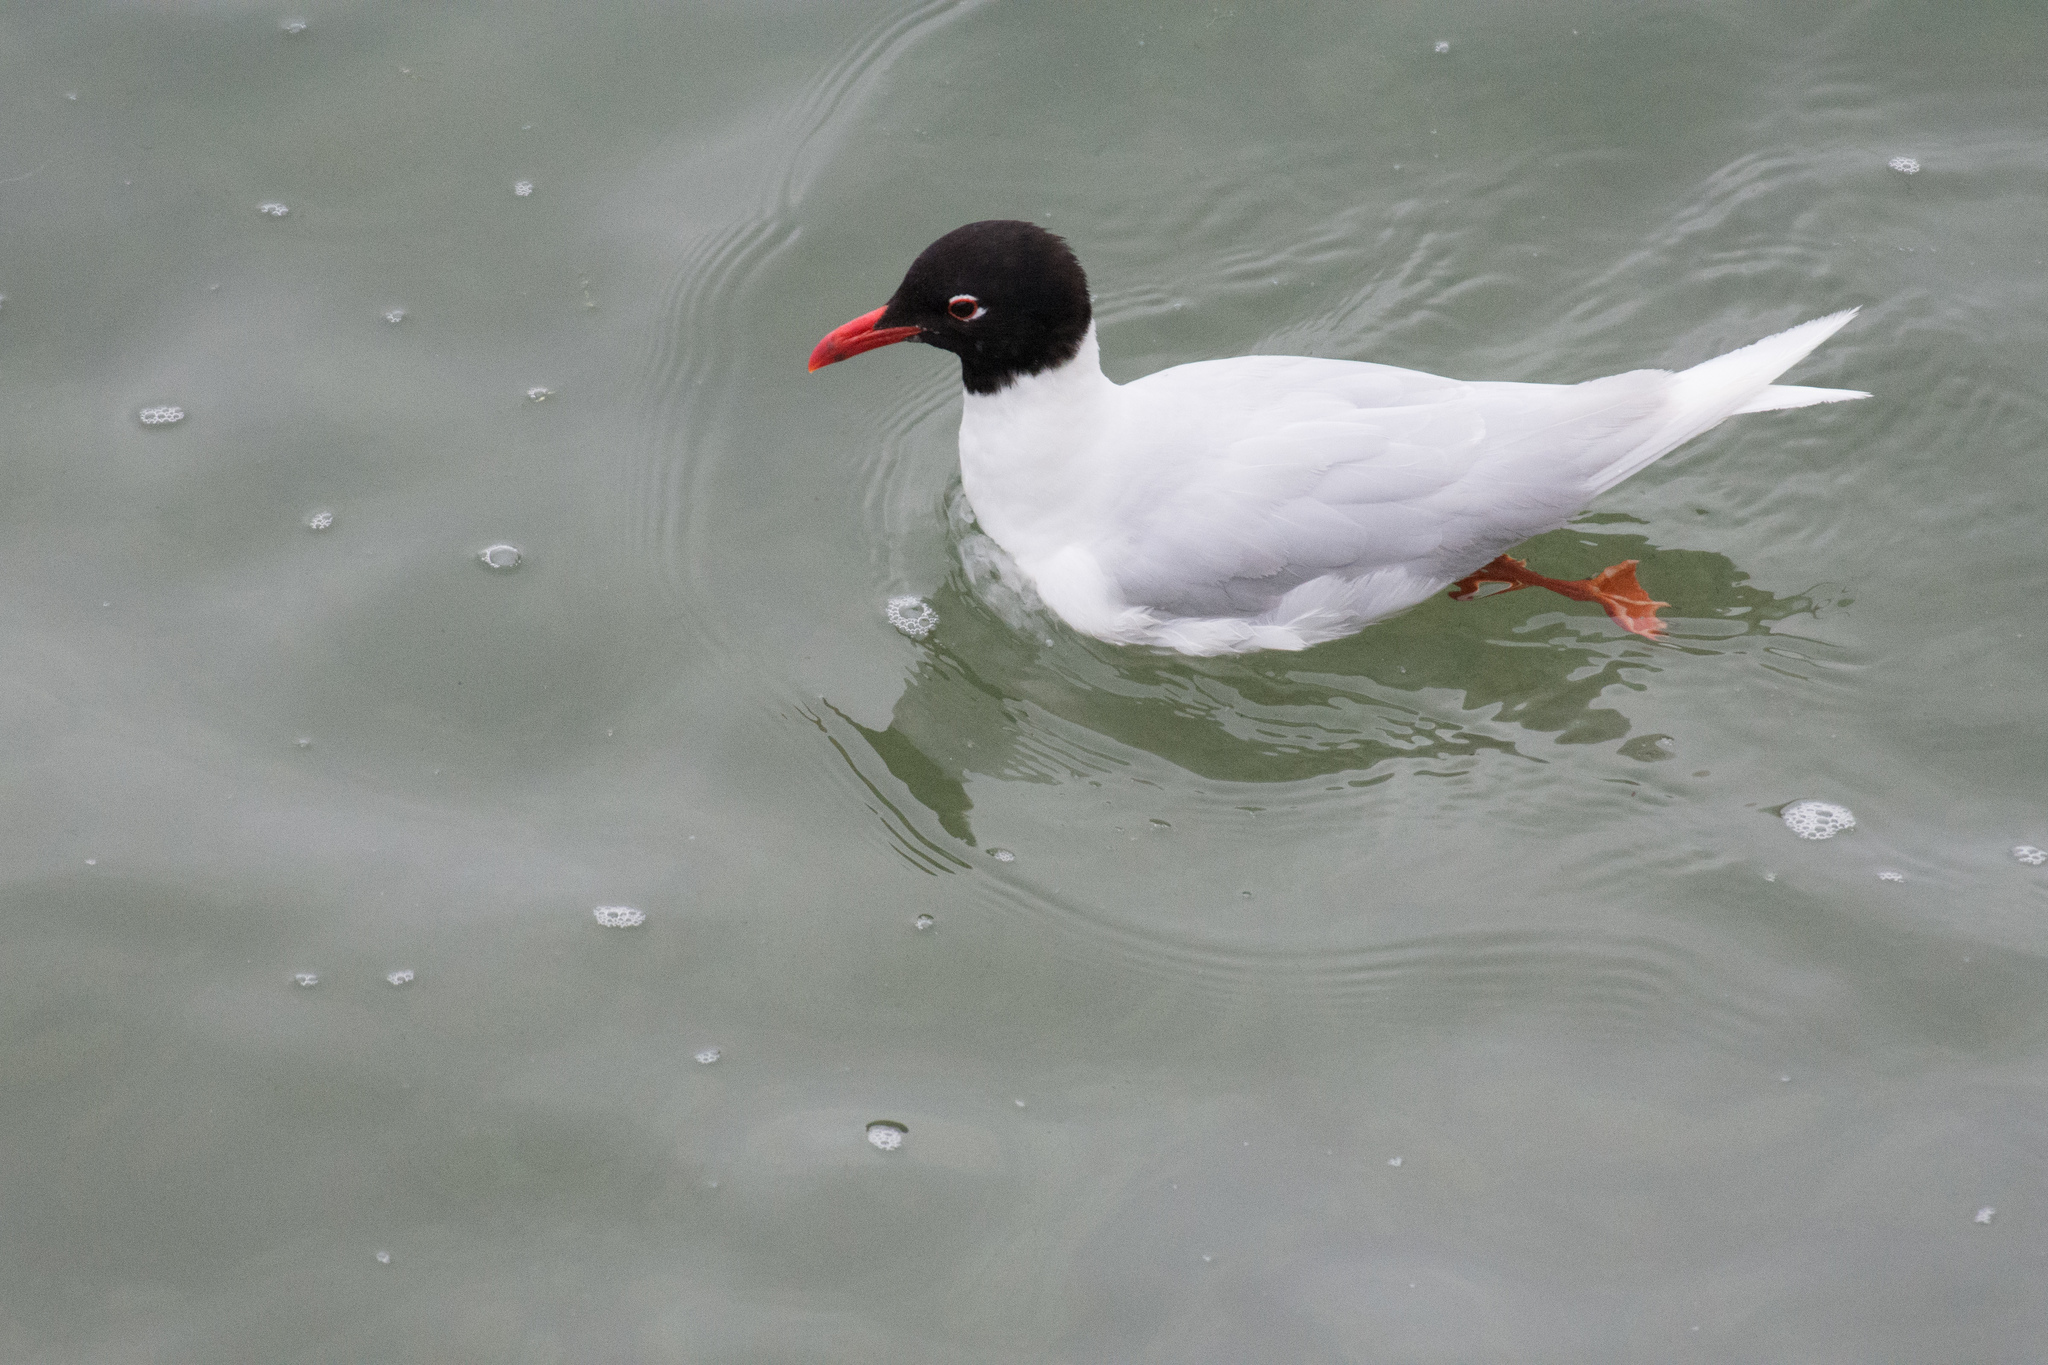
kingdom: Animalia
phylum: Chordata
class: Aves
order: Charadriiformes
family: Laridae
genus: Ichthyaetus
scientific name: Ichthyaetus melanocephalus
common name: Mediterranean gull
